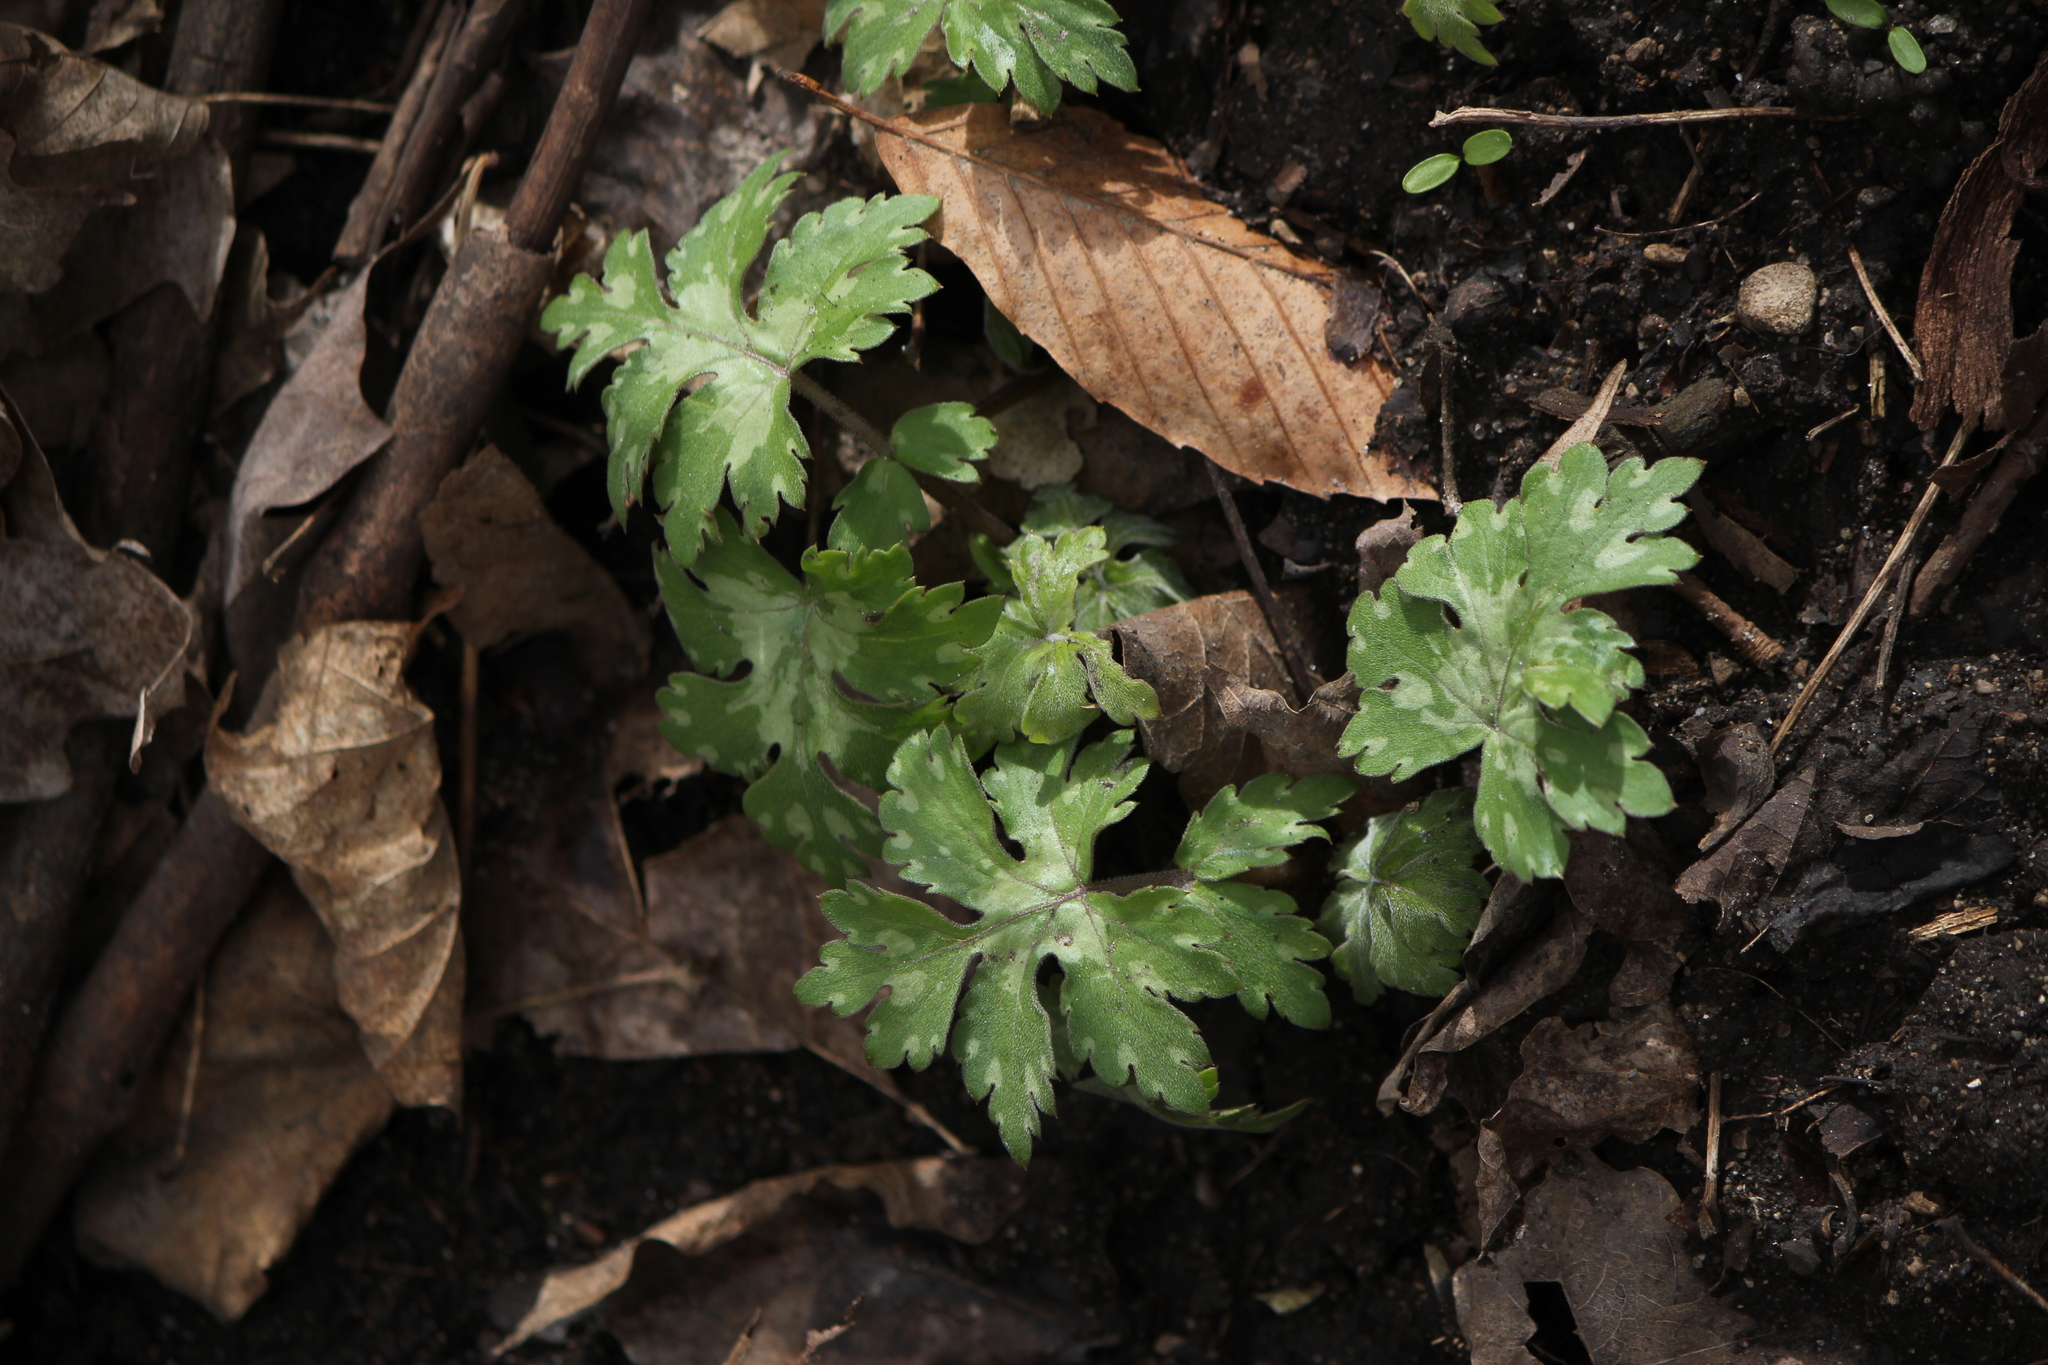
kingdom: Plantae
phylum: Tracheophyta
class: Magnoliopsida
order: Boraginales
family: Hydrophyllaceae
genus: Hydrophyllum
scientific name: Hydrophyllum virginianum
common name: Virginia waterleaf
